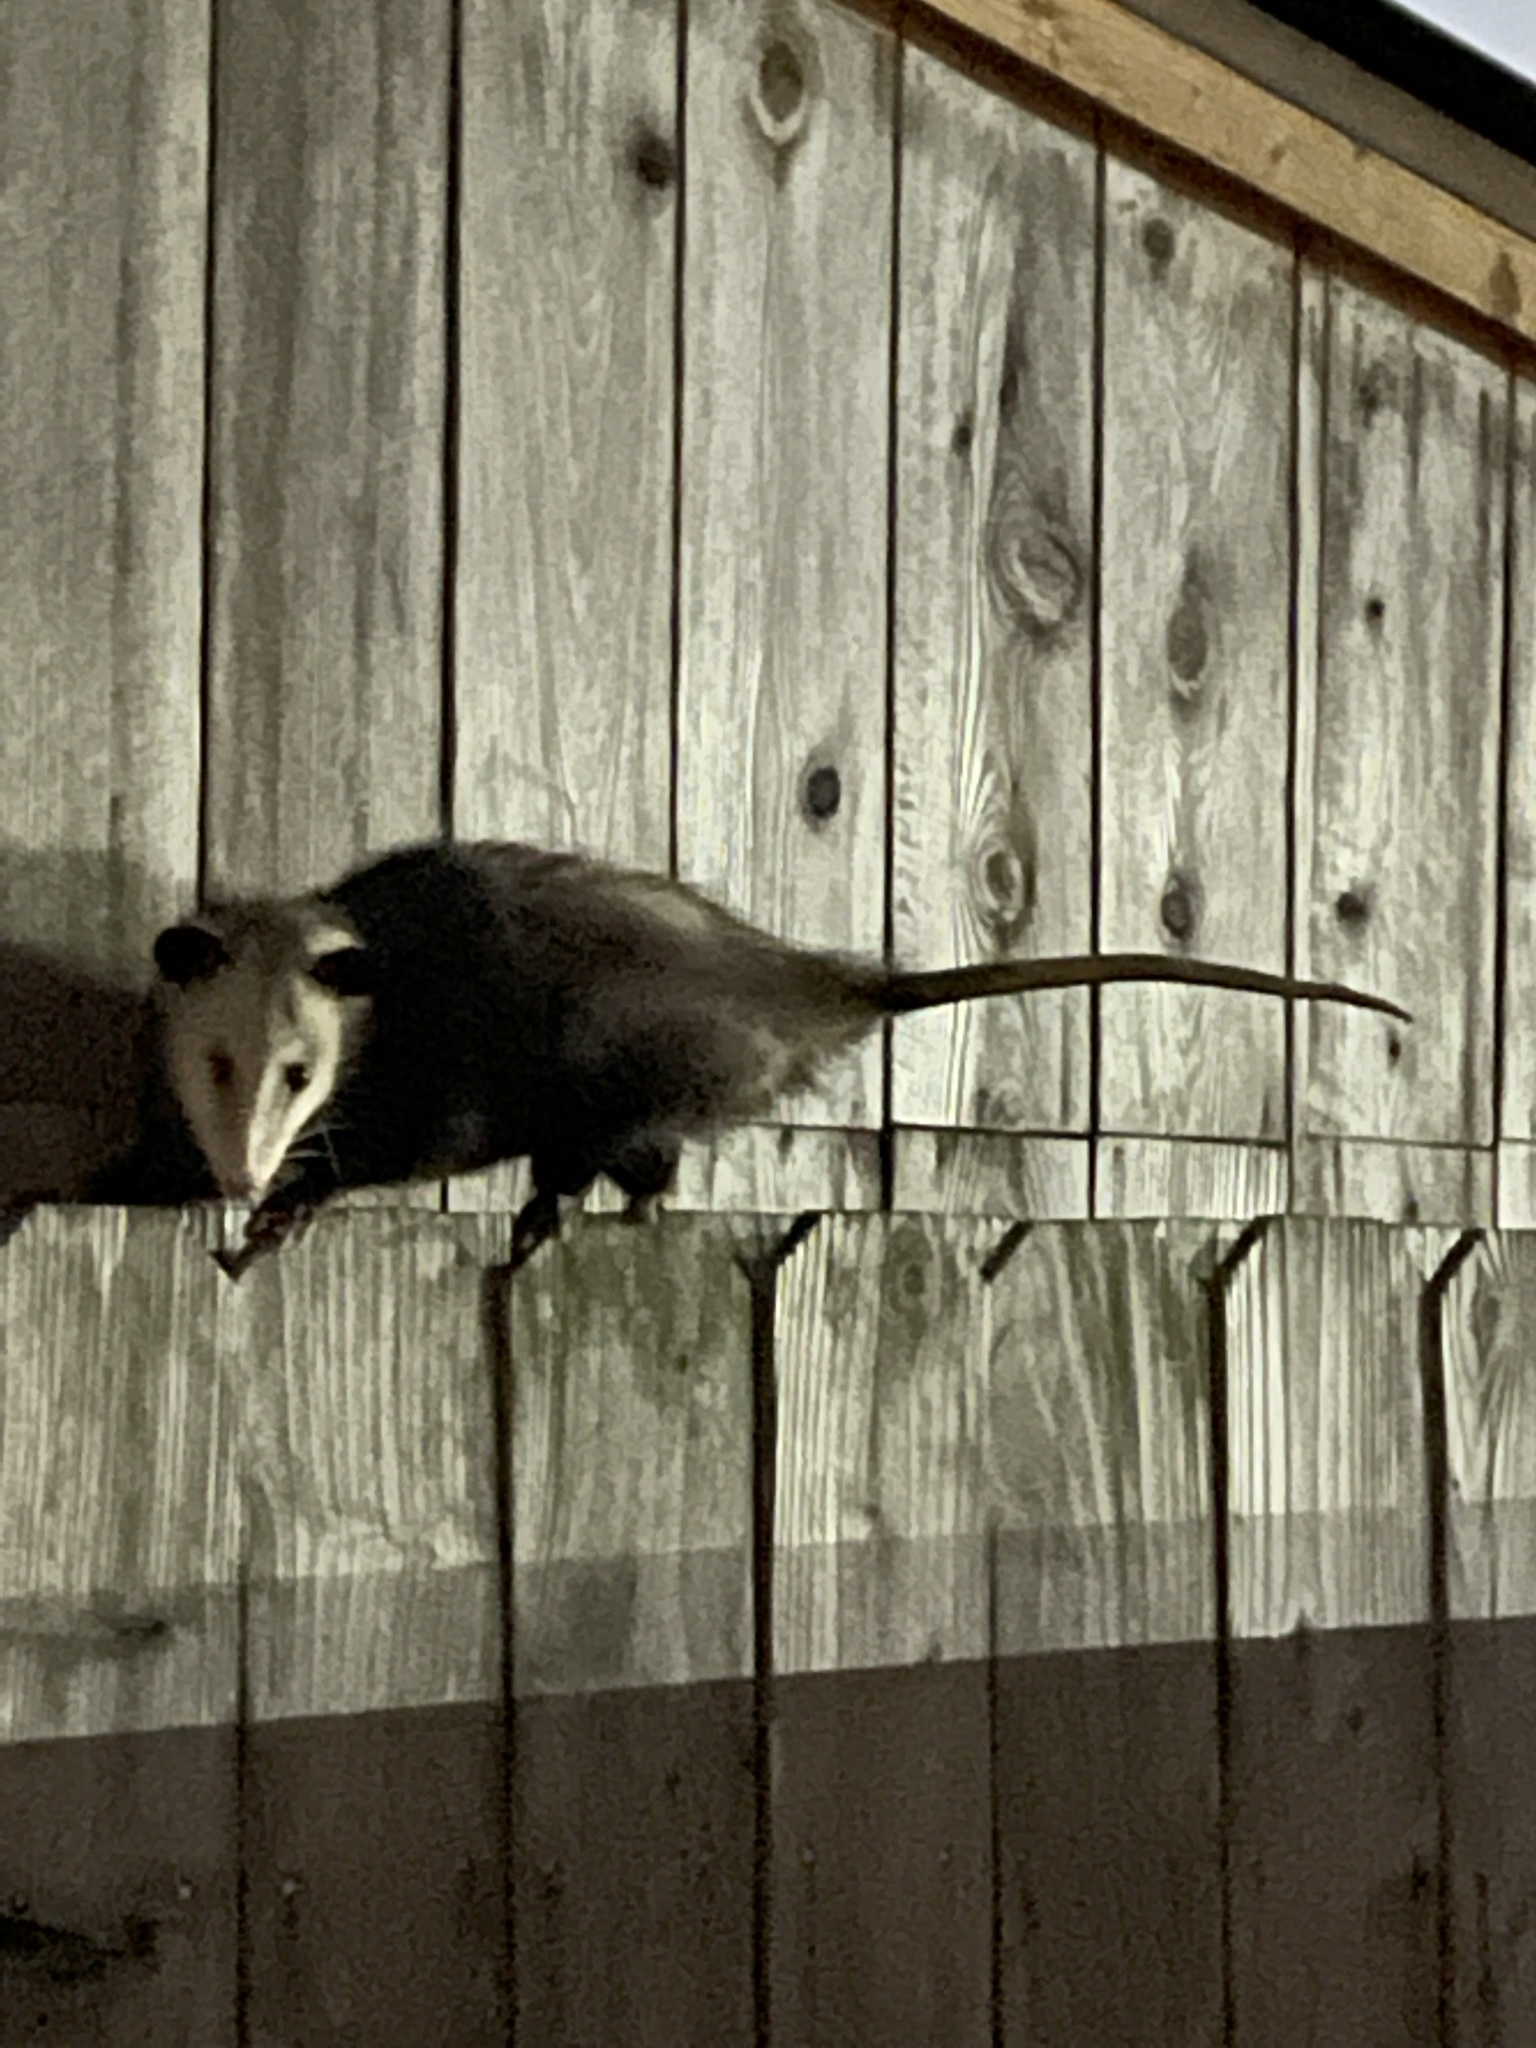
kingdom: Animalia
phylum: Chordata
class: Mammalia
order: Didelphimorphia
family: Didelphidae
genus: Didelphis
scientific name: Didelphis virginiana
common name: Virginia opossum
